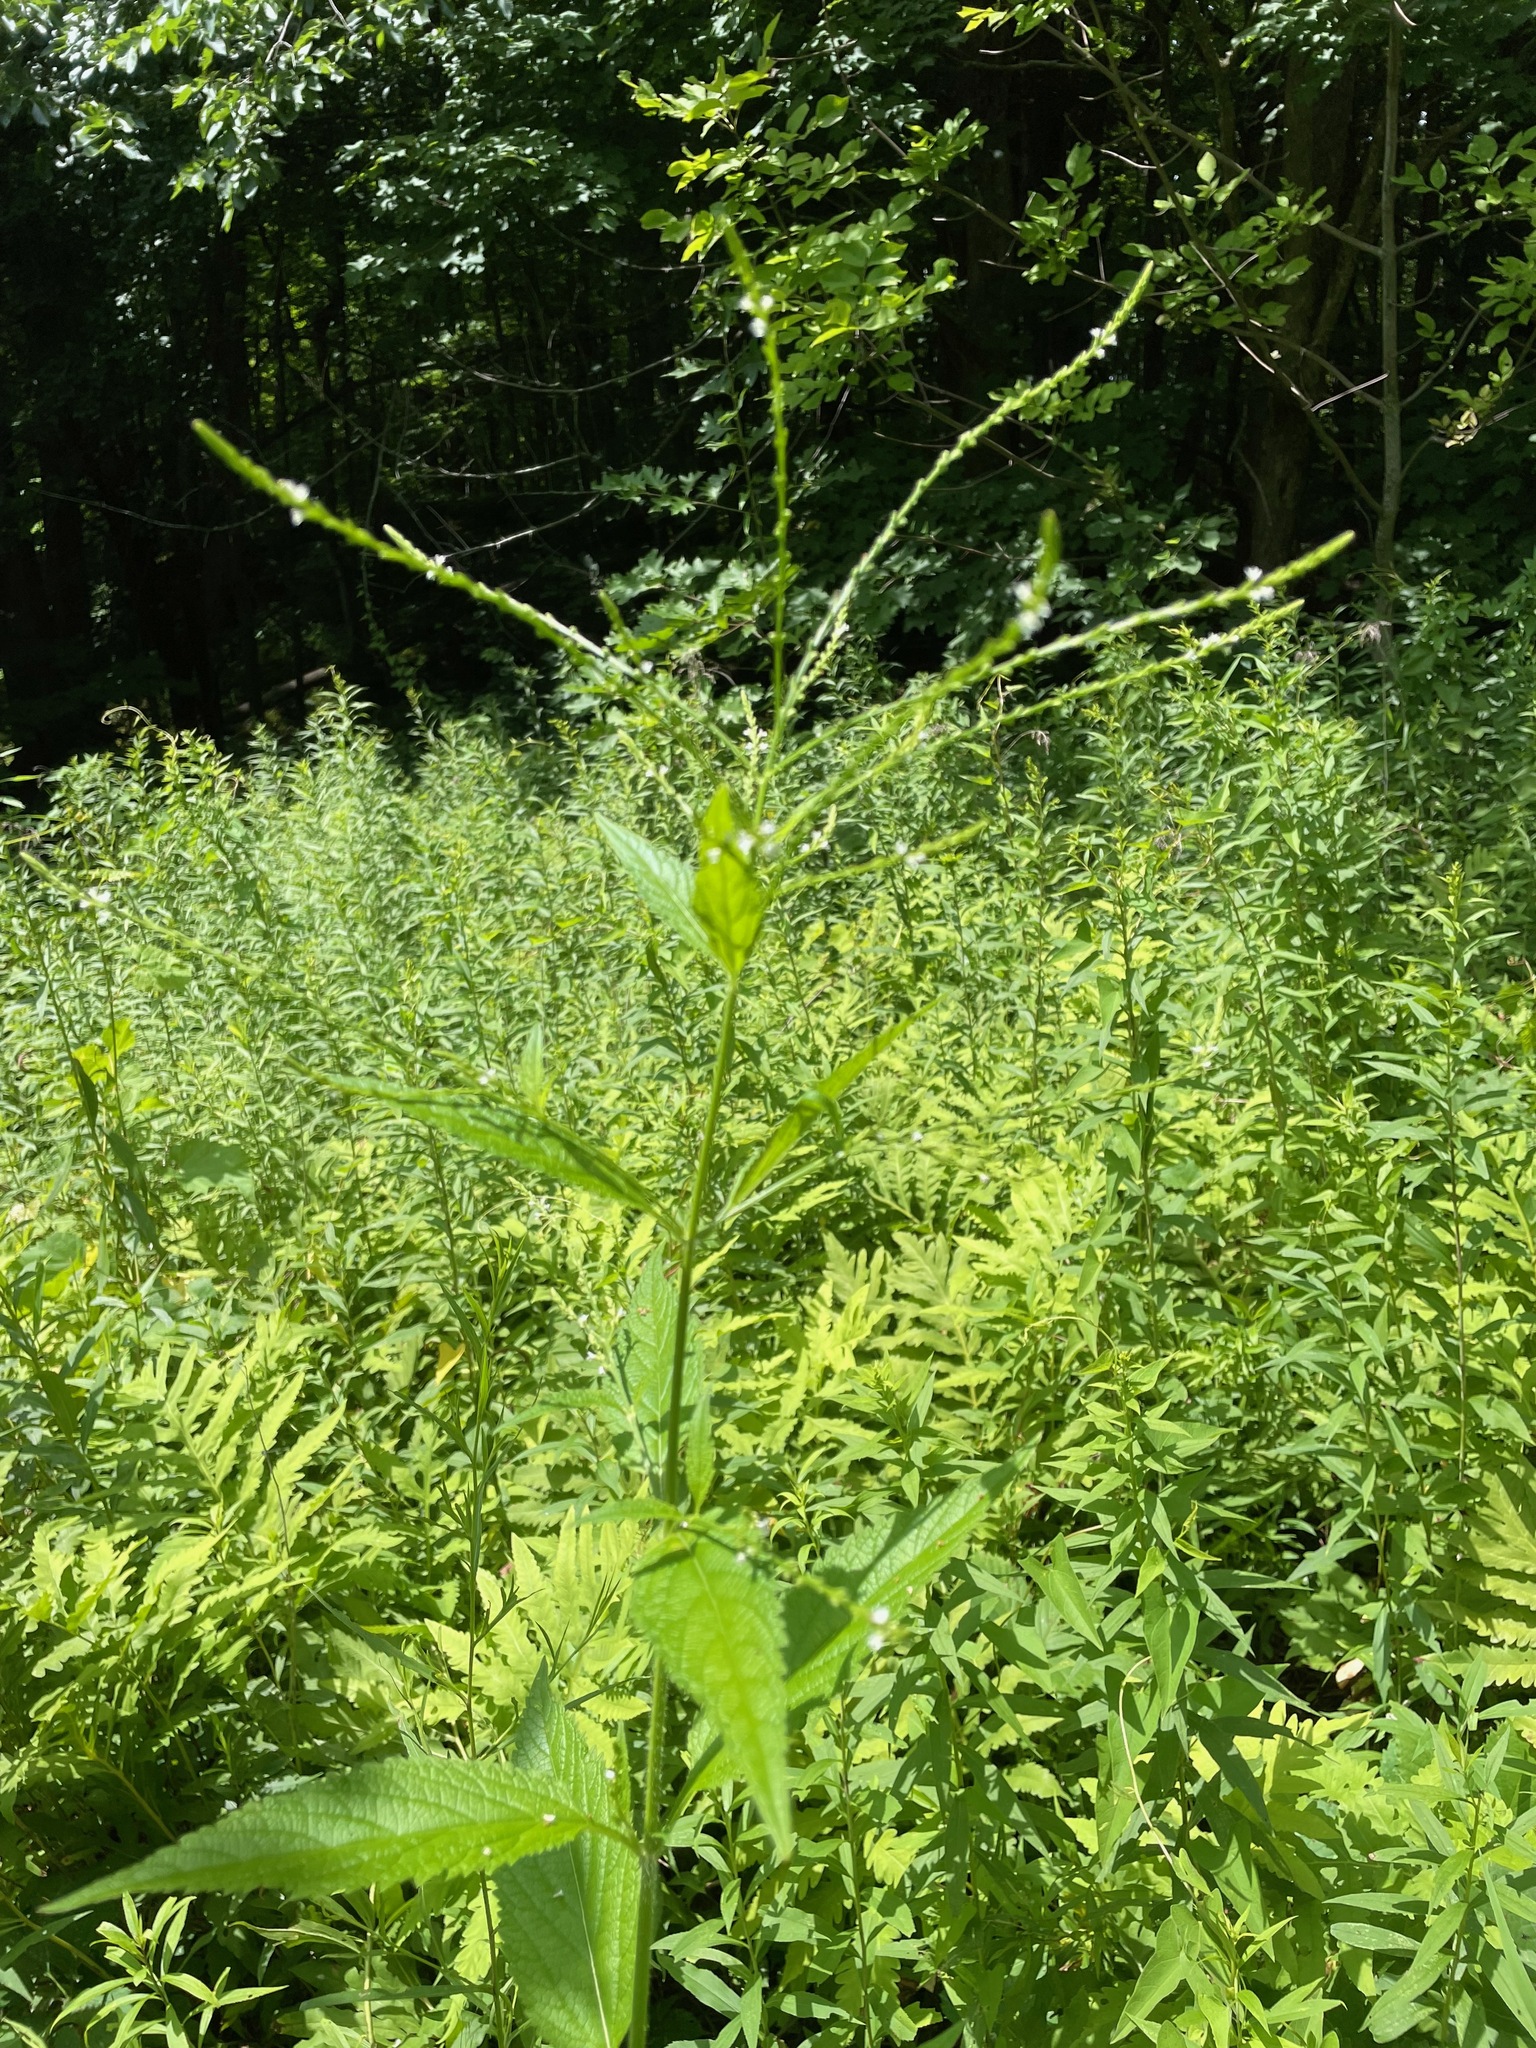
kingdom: Plantae
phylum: Tracheophyta
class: Magnoliopsida
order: Lamiales
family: Verbenaceae
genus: Verbena
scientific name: Verbena urticifolia
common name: Nettle-leaved vervain
